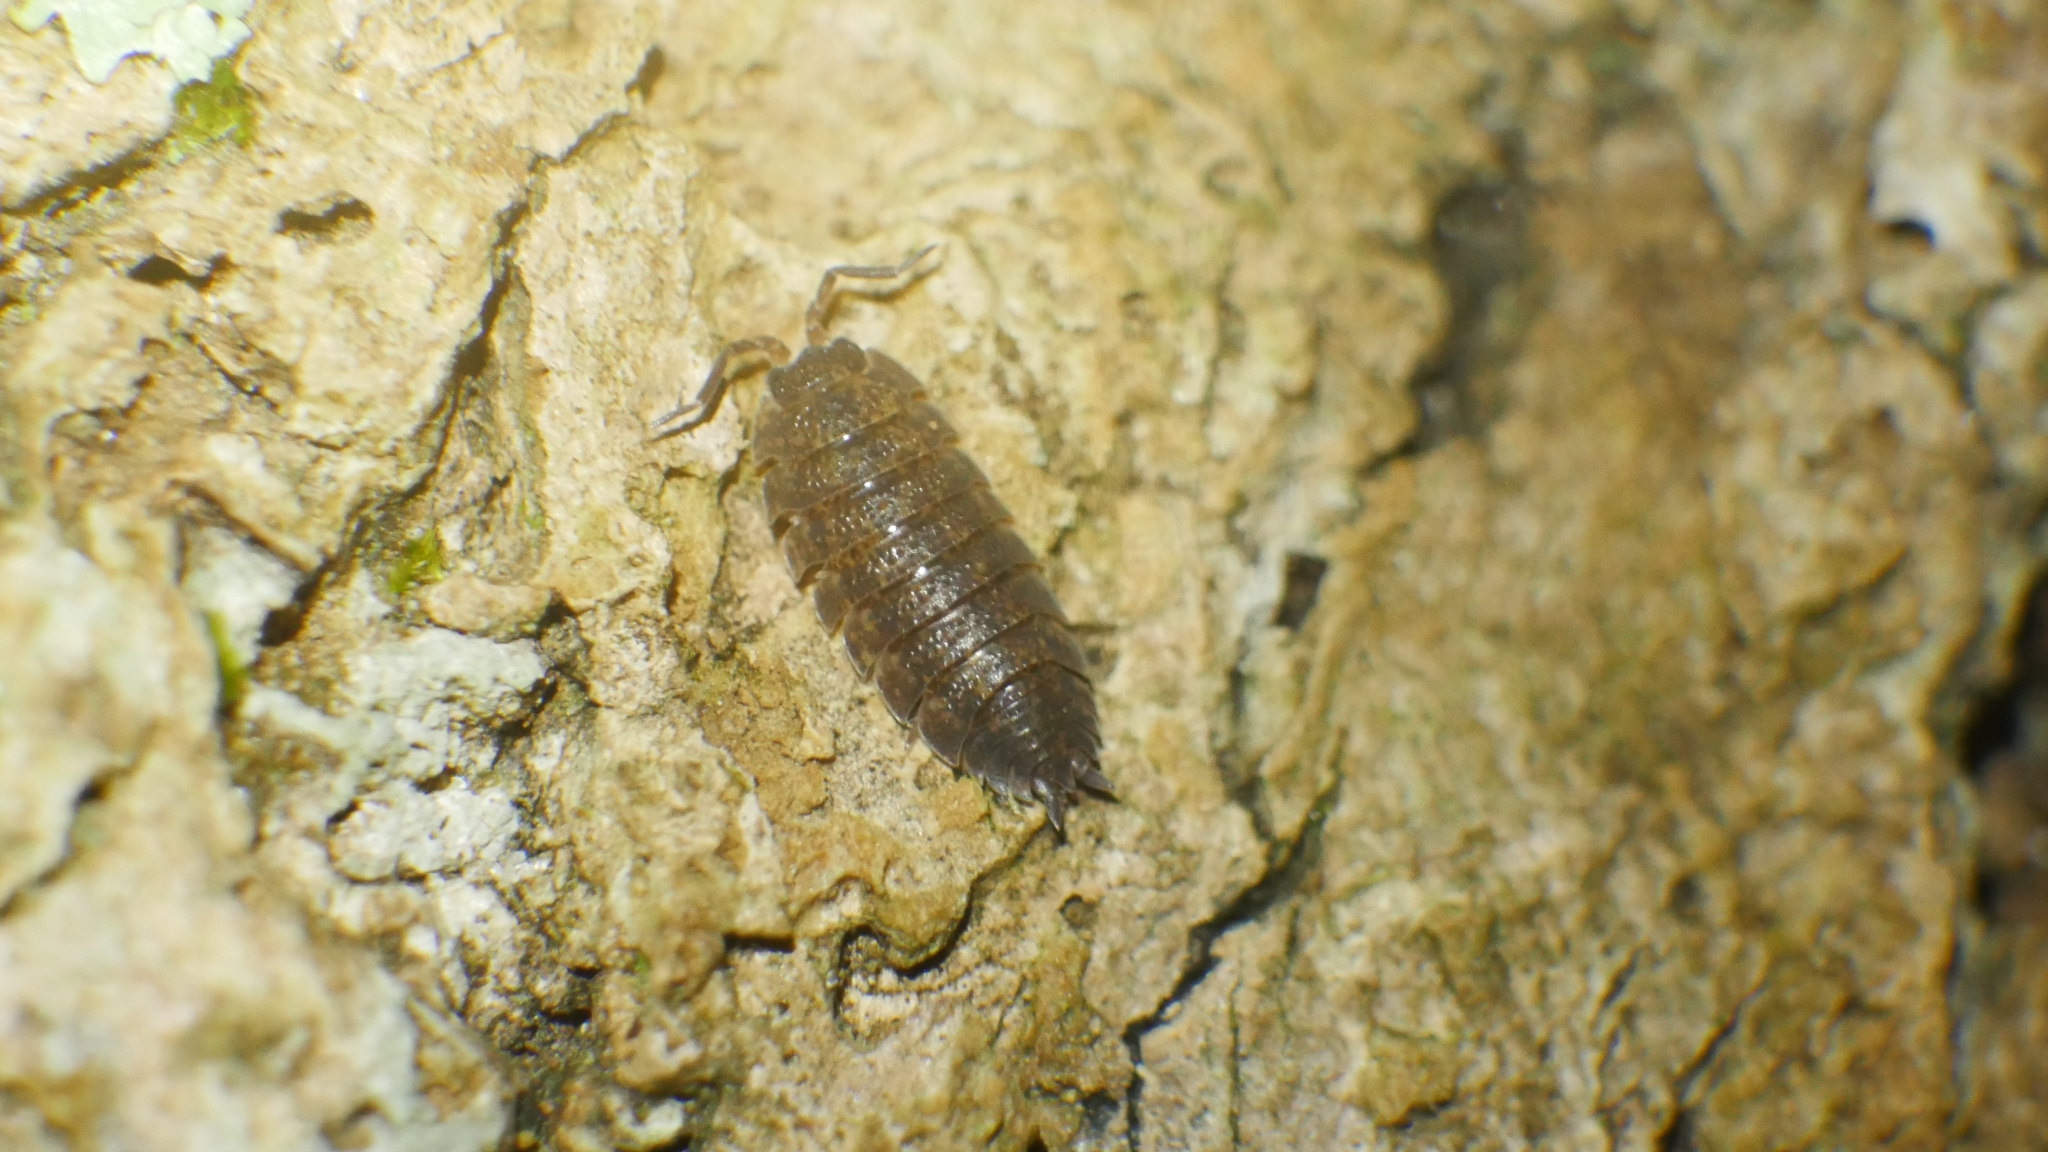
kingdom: Animalia
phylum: Arthropoda
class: Malacostraca
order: Isopoda
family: Porcellionidae
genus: Porcellio
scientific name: Porcellio scaber
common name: Common rough woodlouse
